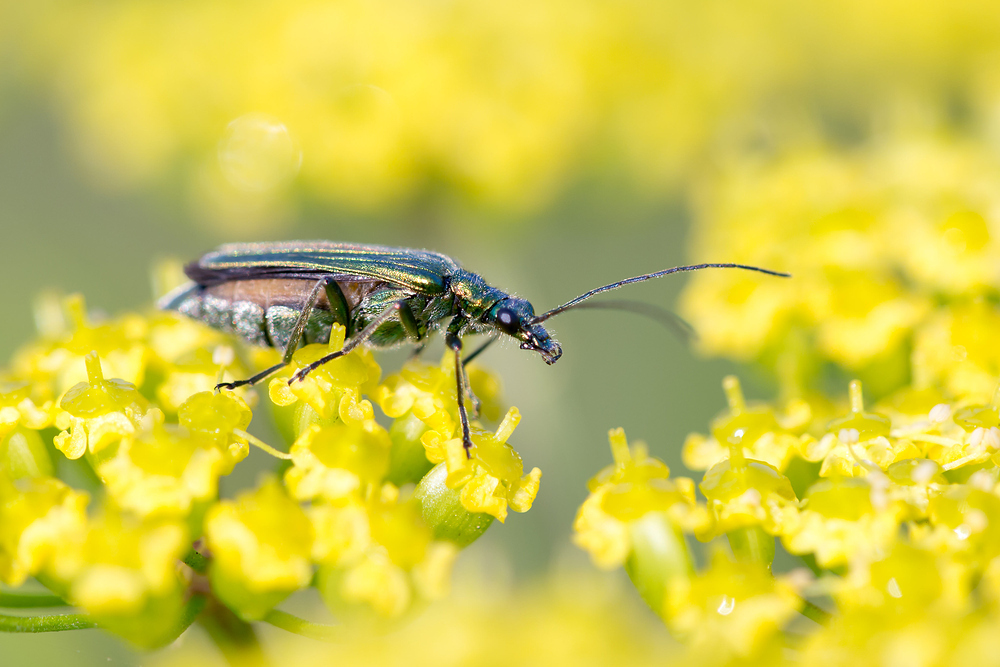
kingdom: Animalia
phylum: Arthropoda
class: Insecta
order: Coleoptera
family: Oedemeridae
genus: Oedemera
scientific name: Oedemera nobilis
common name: Swollen-thighed beetle
